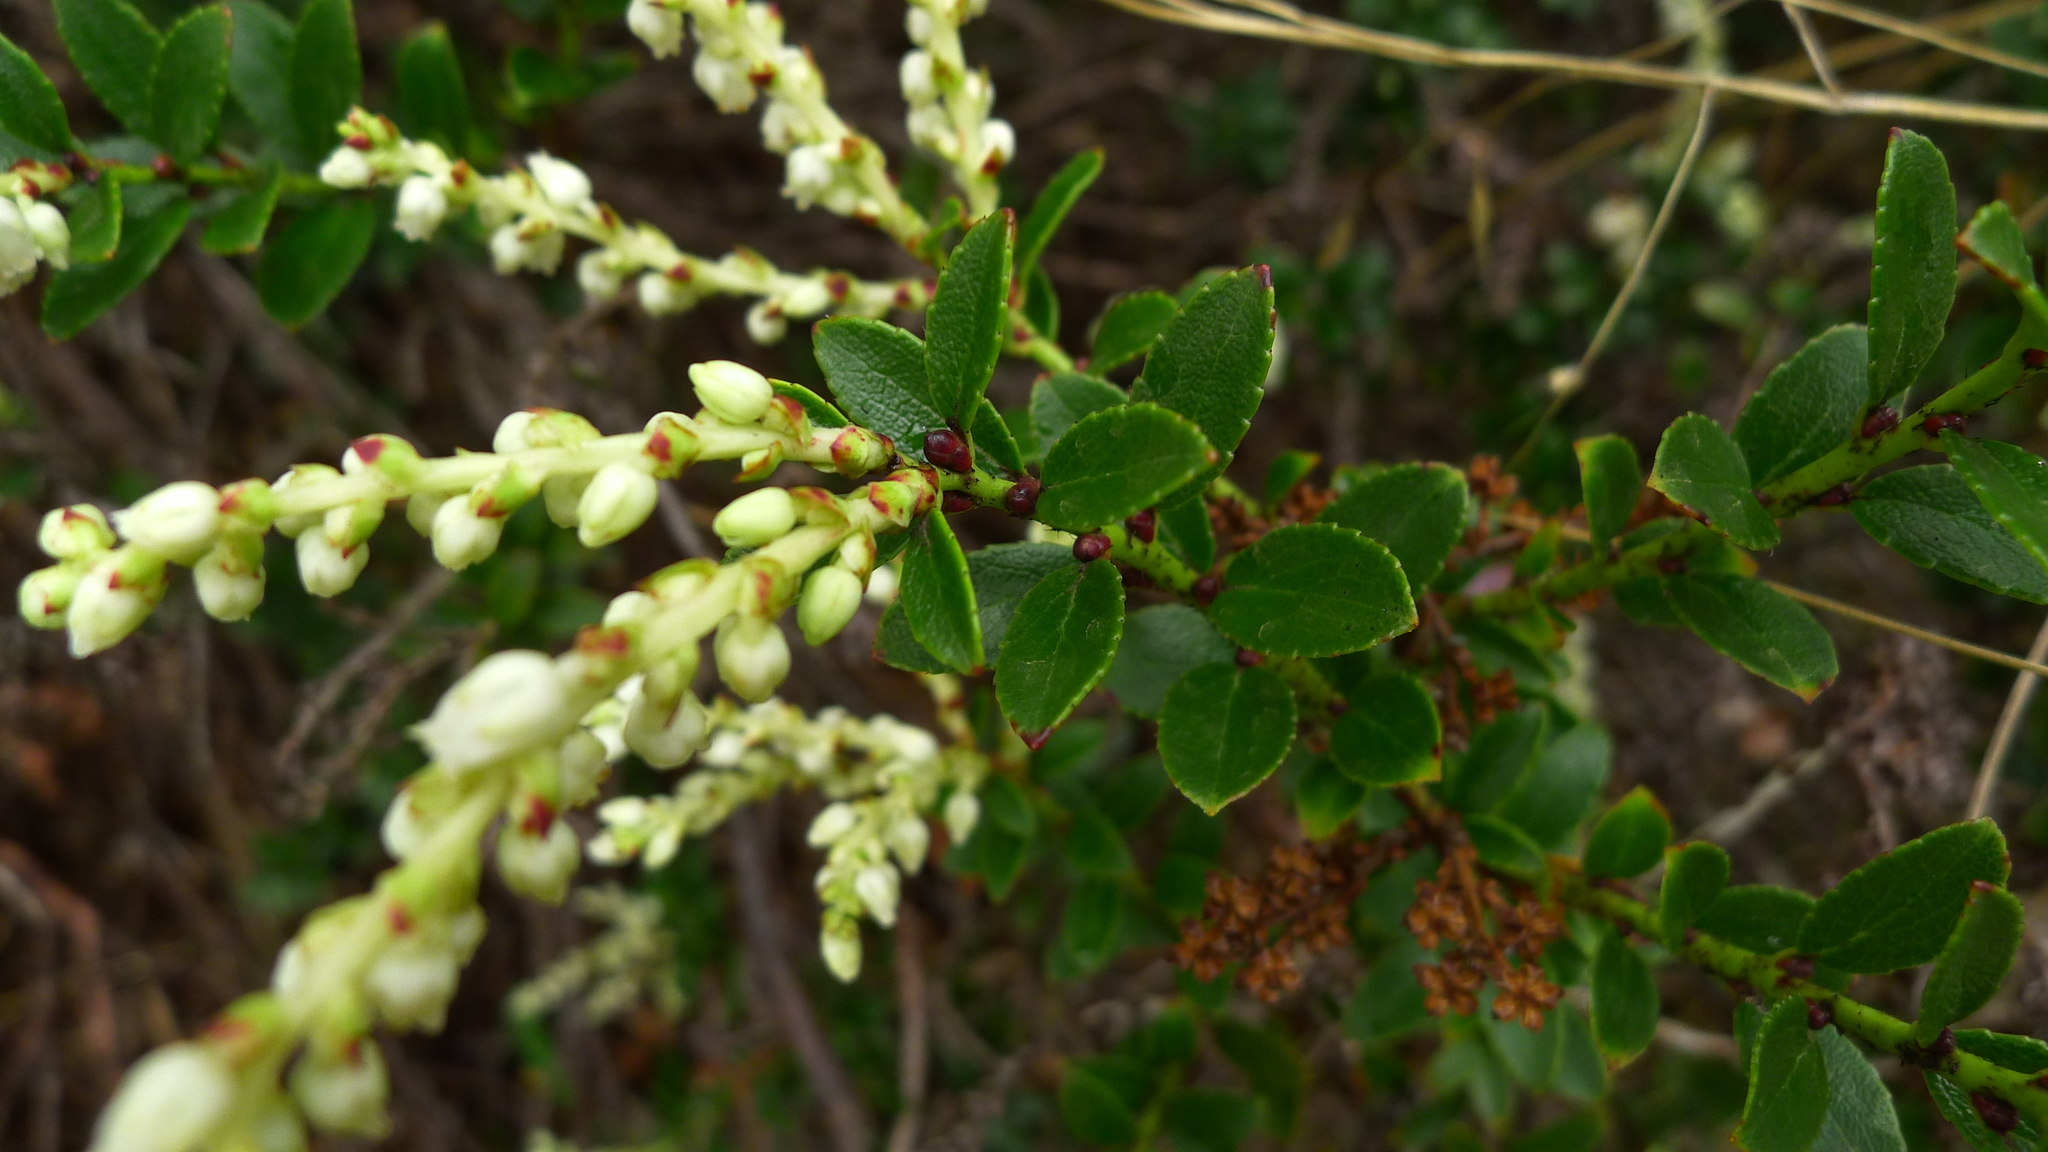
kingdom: Plantae
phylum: Tracheophyta
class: Magnoliopsida
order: Ericales
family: Ericaceae
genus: Gaultheria
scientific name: Gaultheria rupestris
